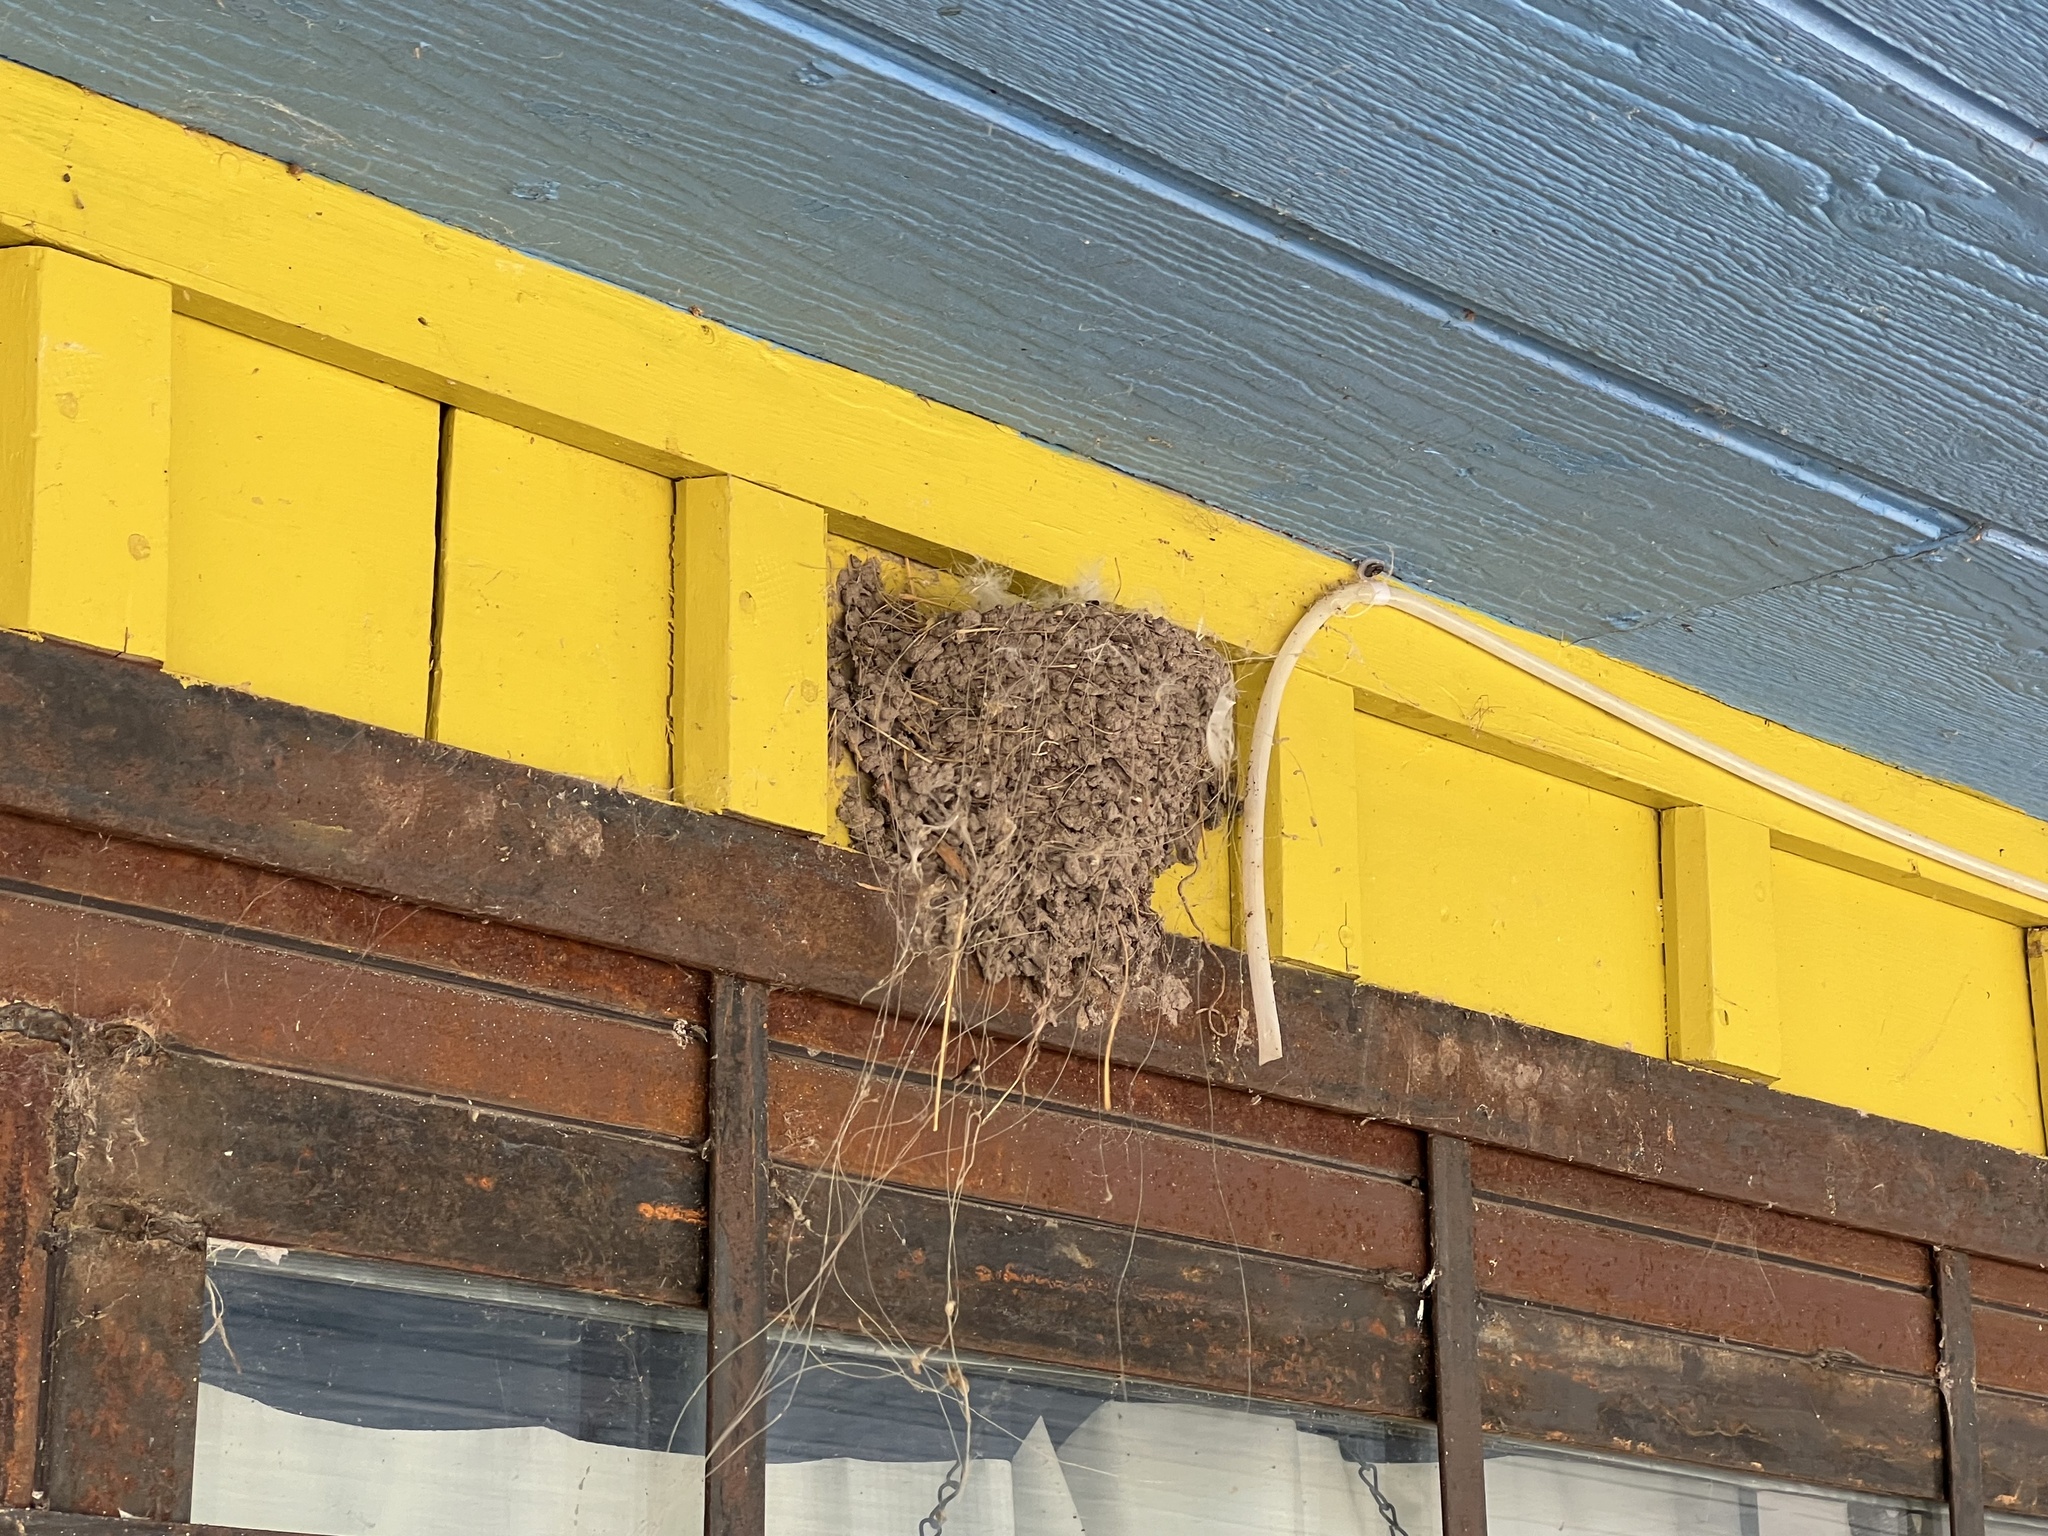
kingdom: Animalia
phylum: Chordata
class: Aves
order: Passeriformes
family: Hirundinidae
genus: Hirundo
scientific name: Hirundo rustica
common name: Barn swallow
